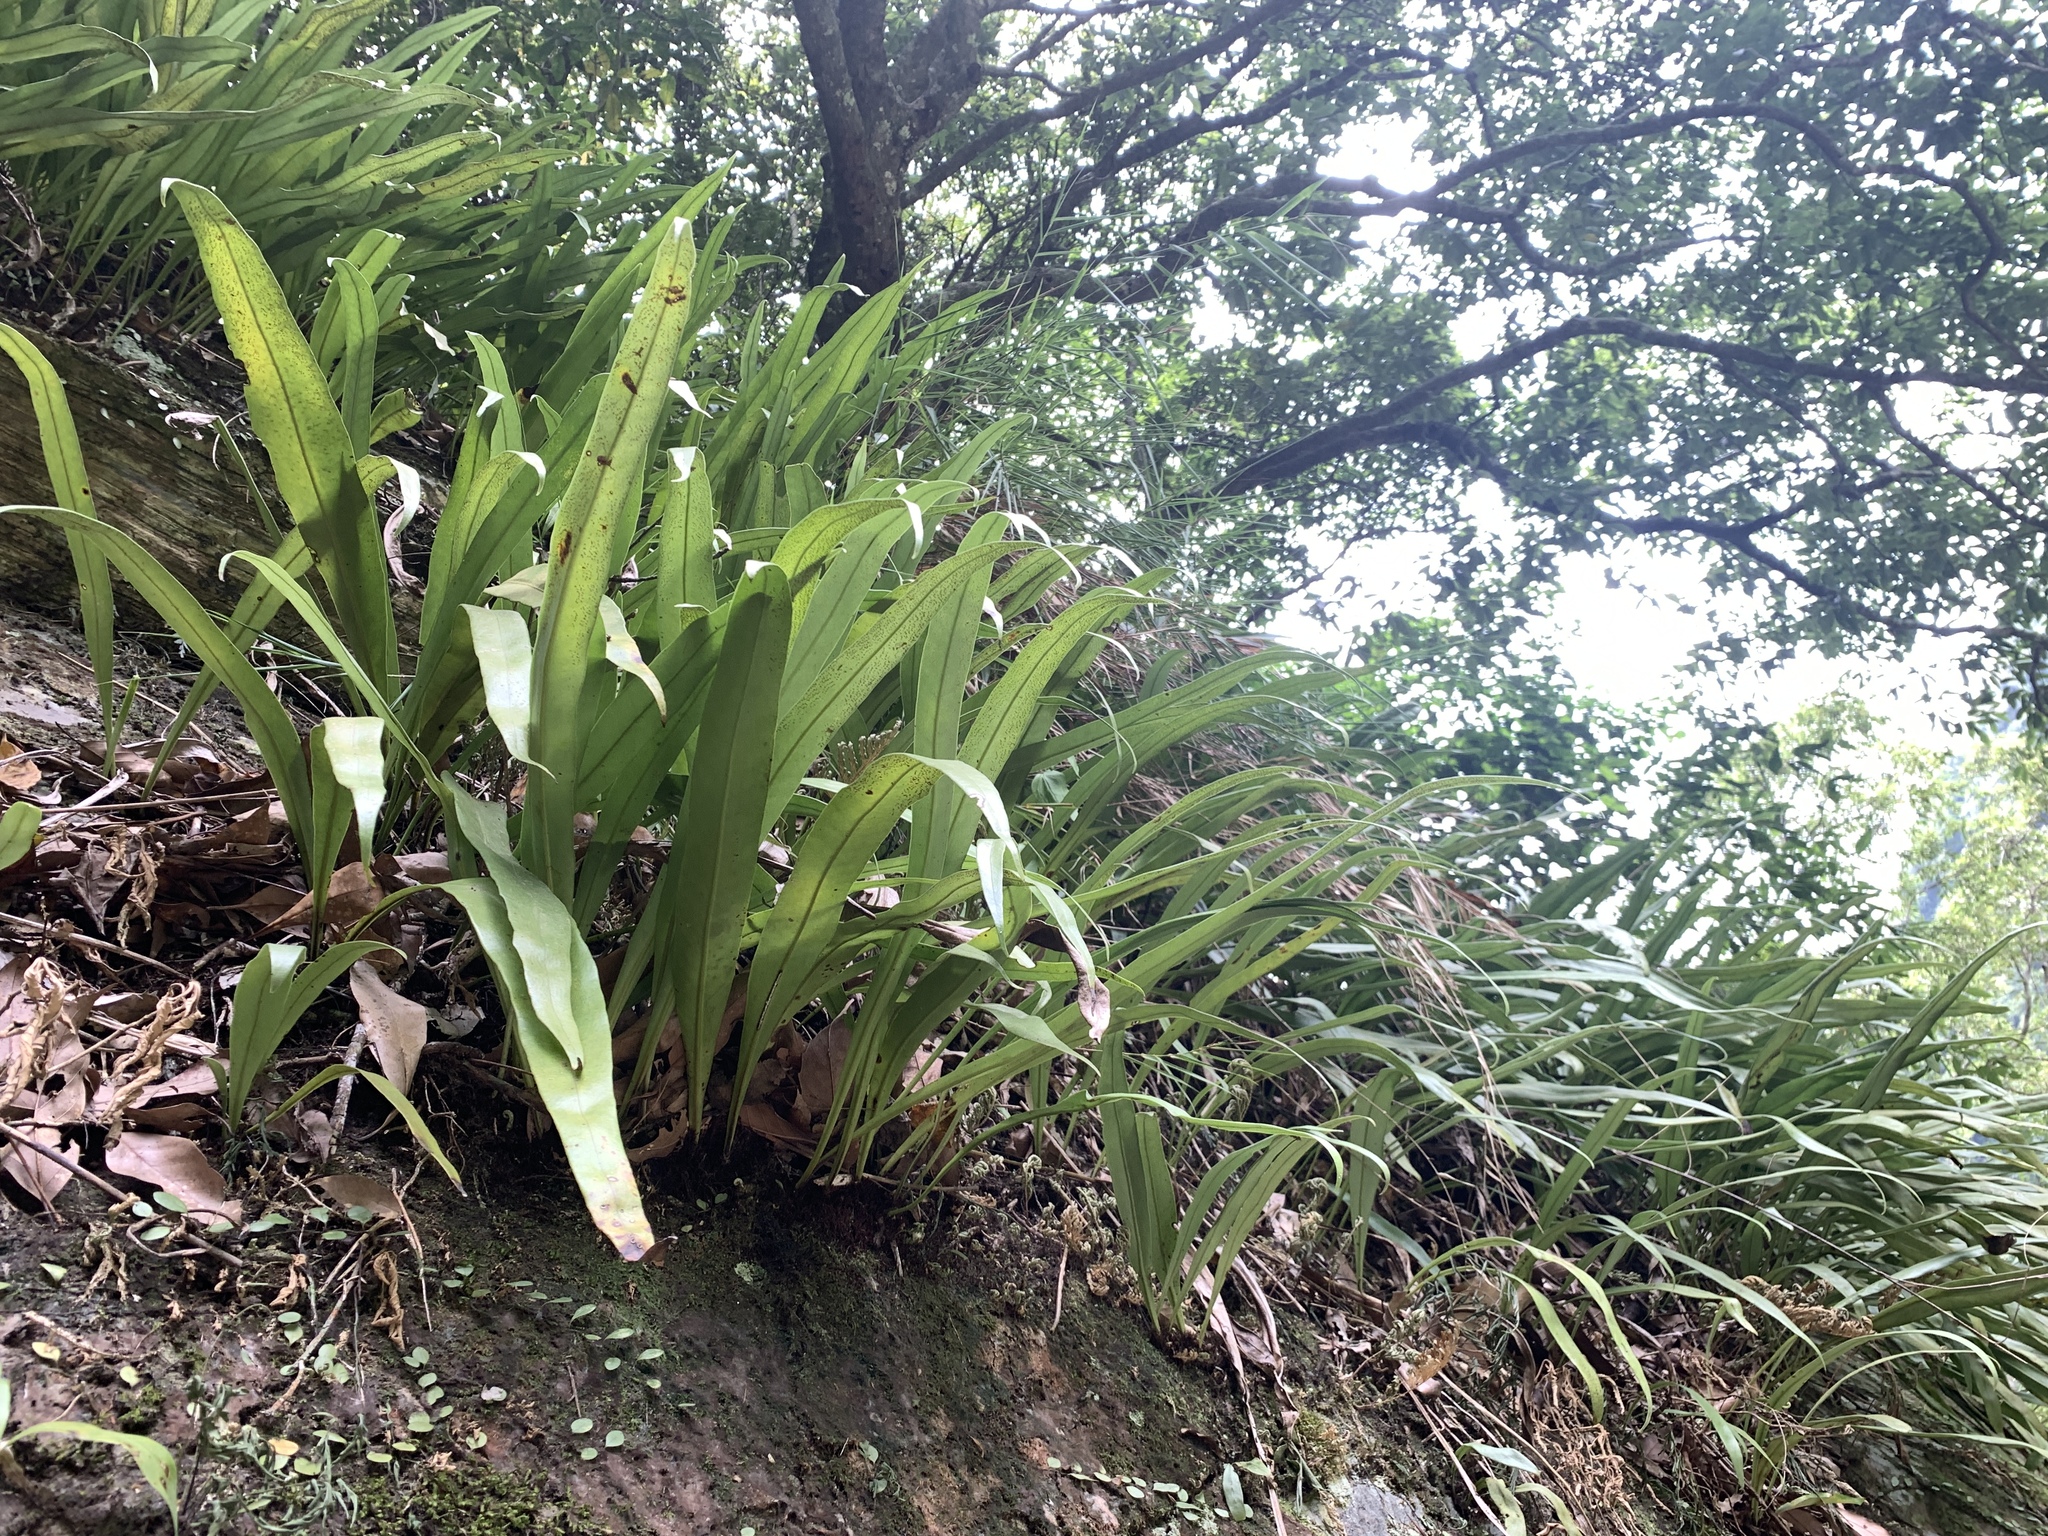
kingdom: Plantae
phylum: Tracheophyta
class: Polypodiopsida
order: Polypodiales
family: Polypodiaceae
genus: Microsorum
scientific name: Microsorum punctatum
